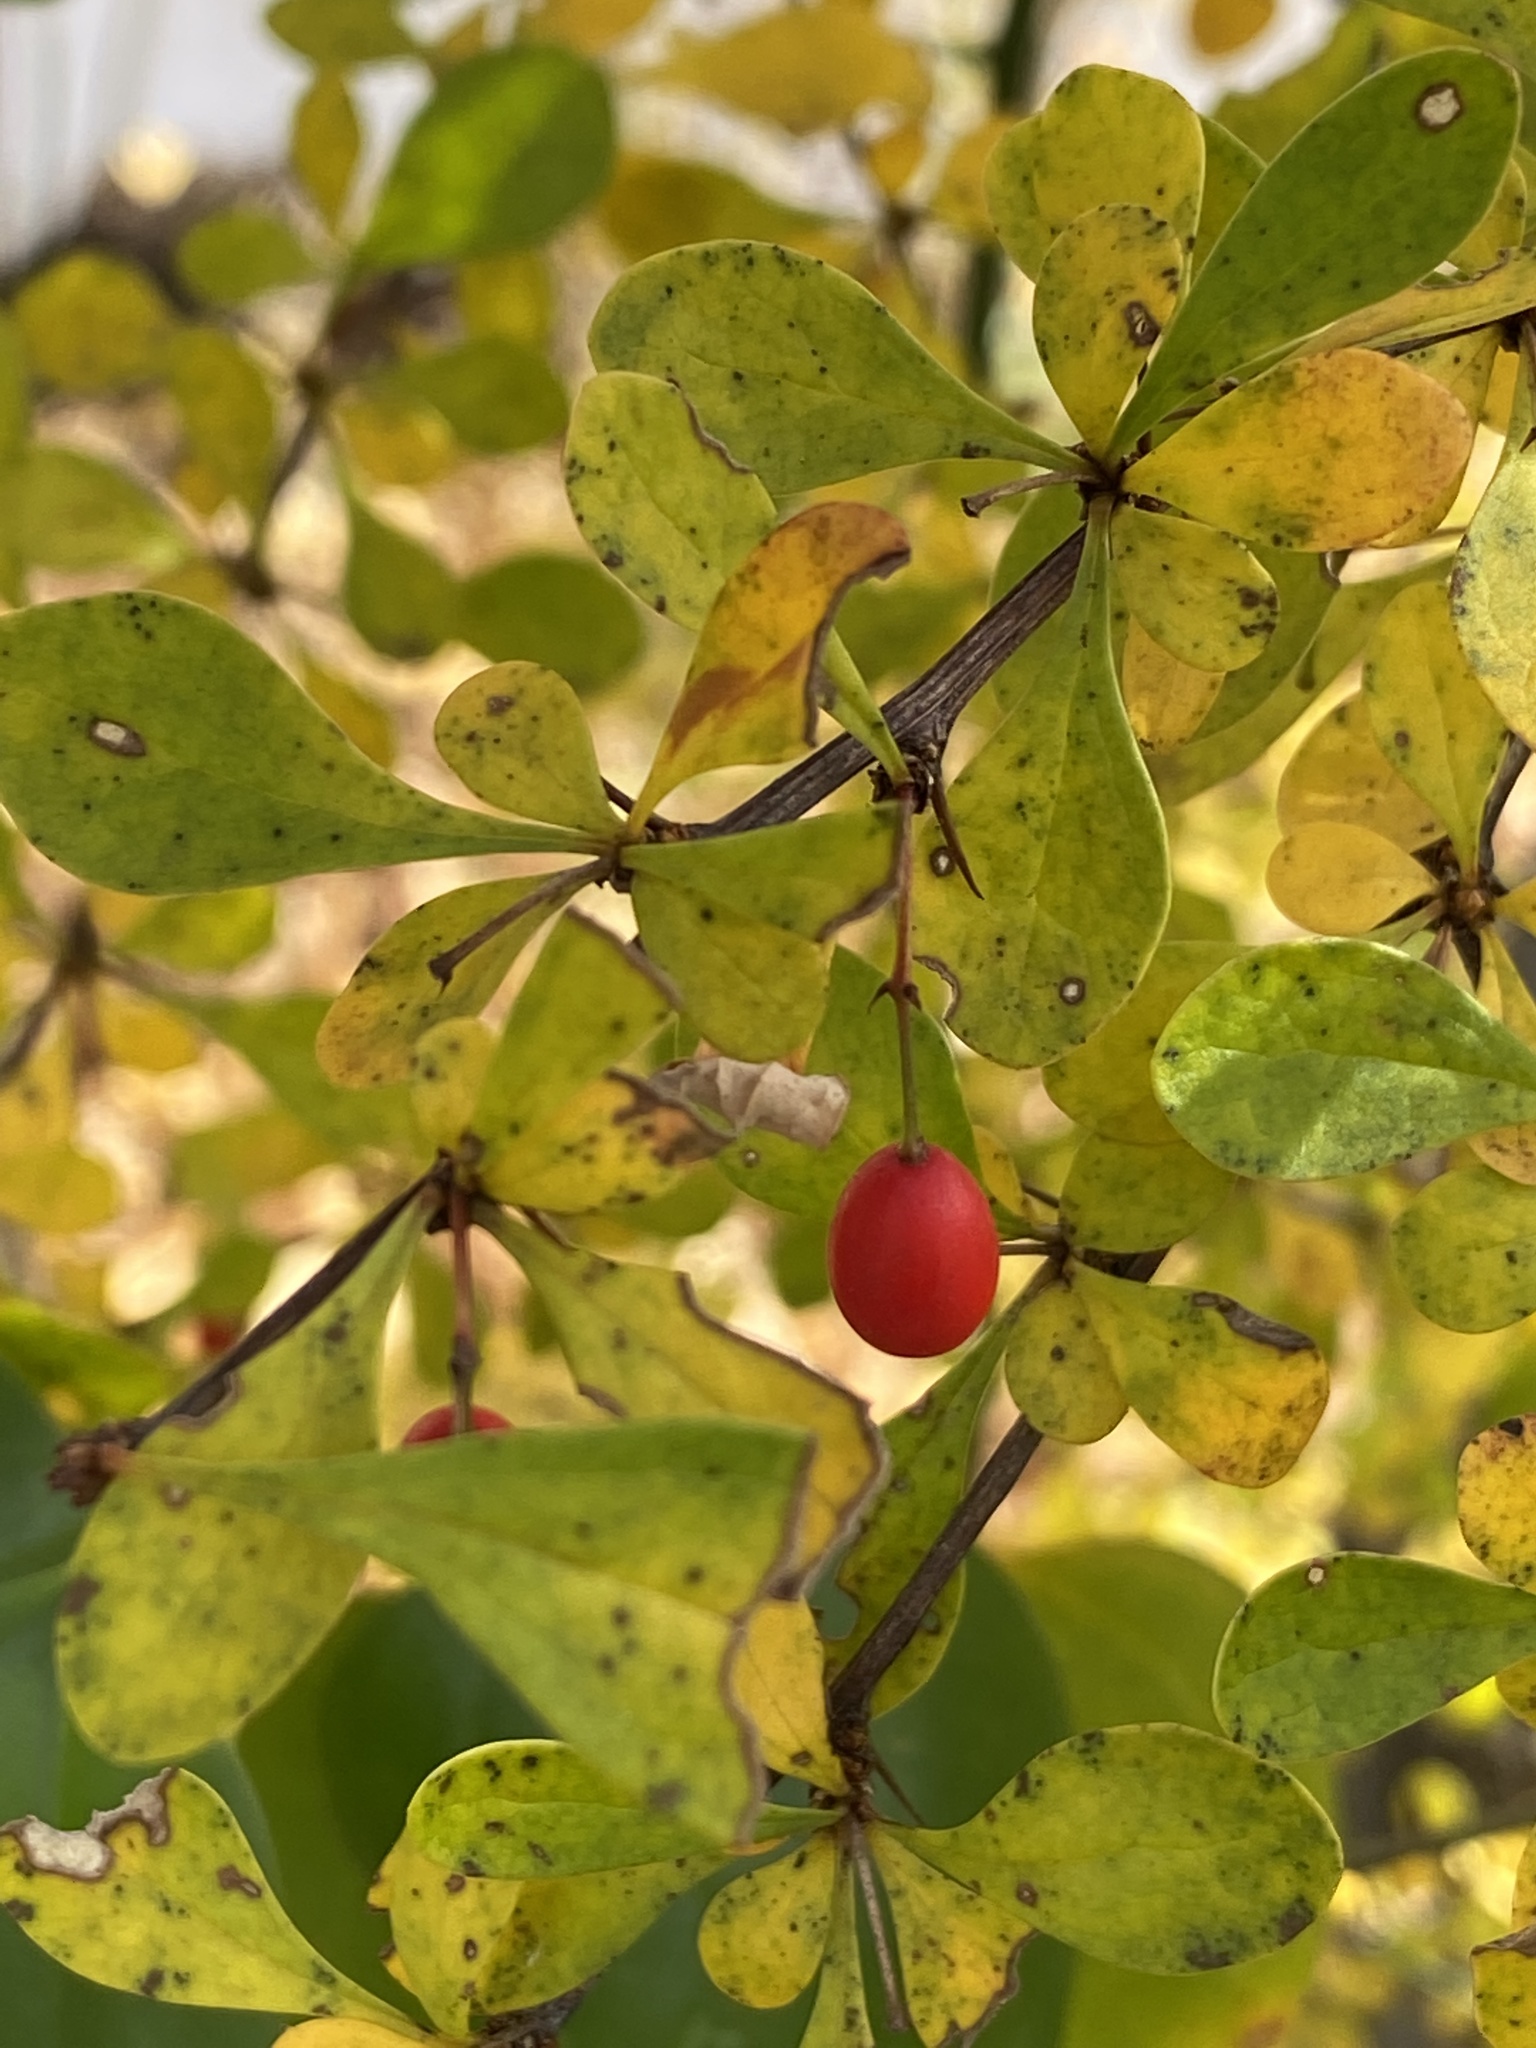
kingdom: Plantae
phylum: Tracheophyta
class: Magnoliopsida
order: Ranunculales
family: Berberidaceae
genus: Berberis
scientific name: Berberis thunbergii
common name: Japanese barberry
